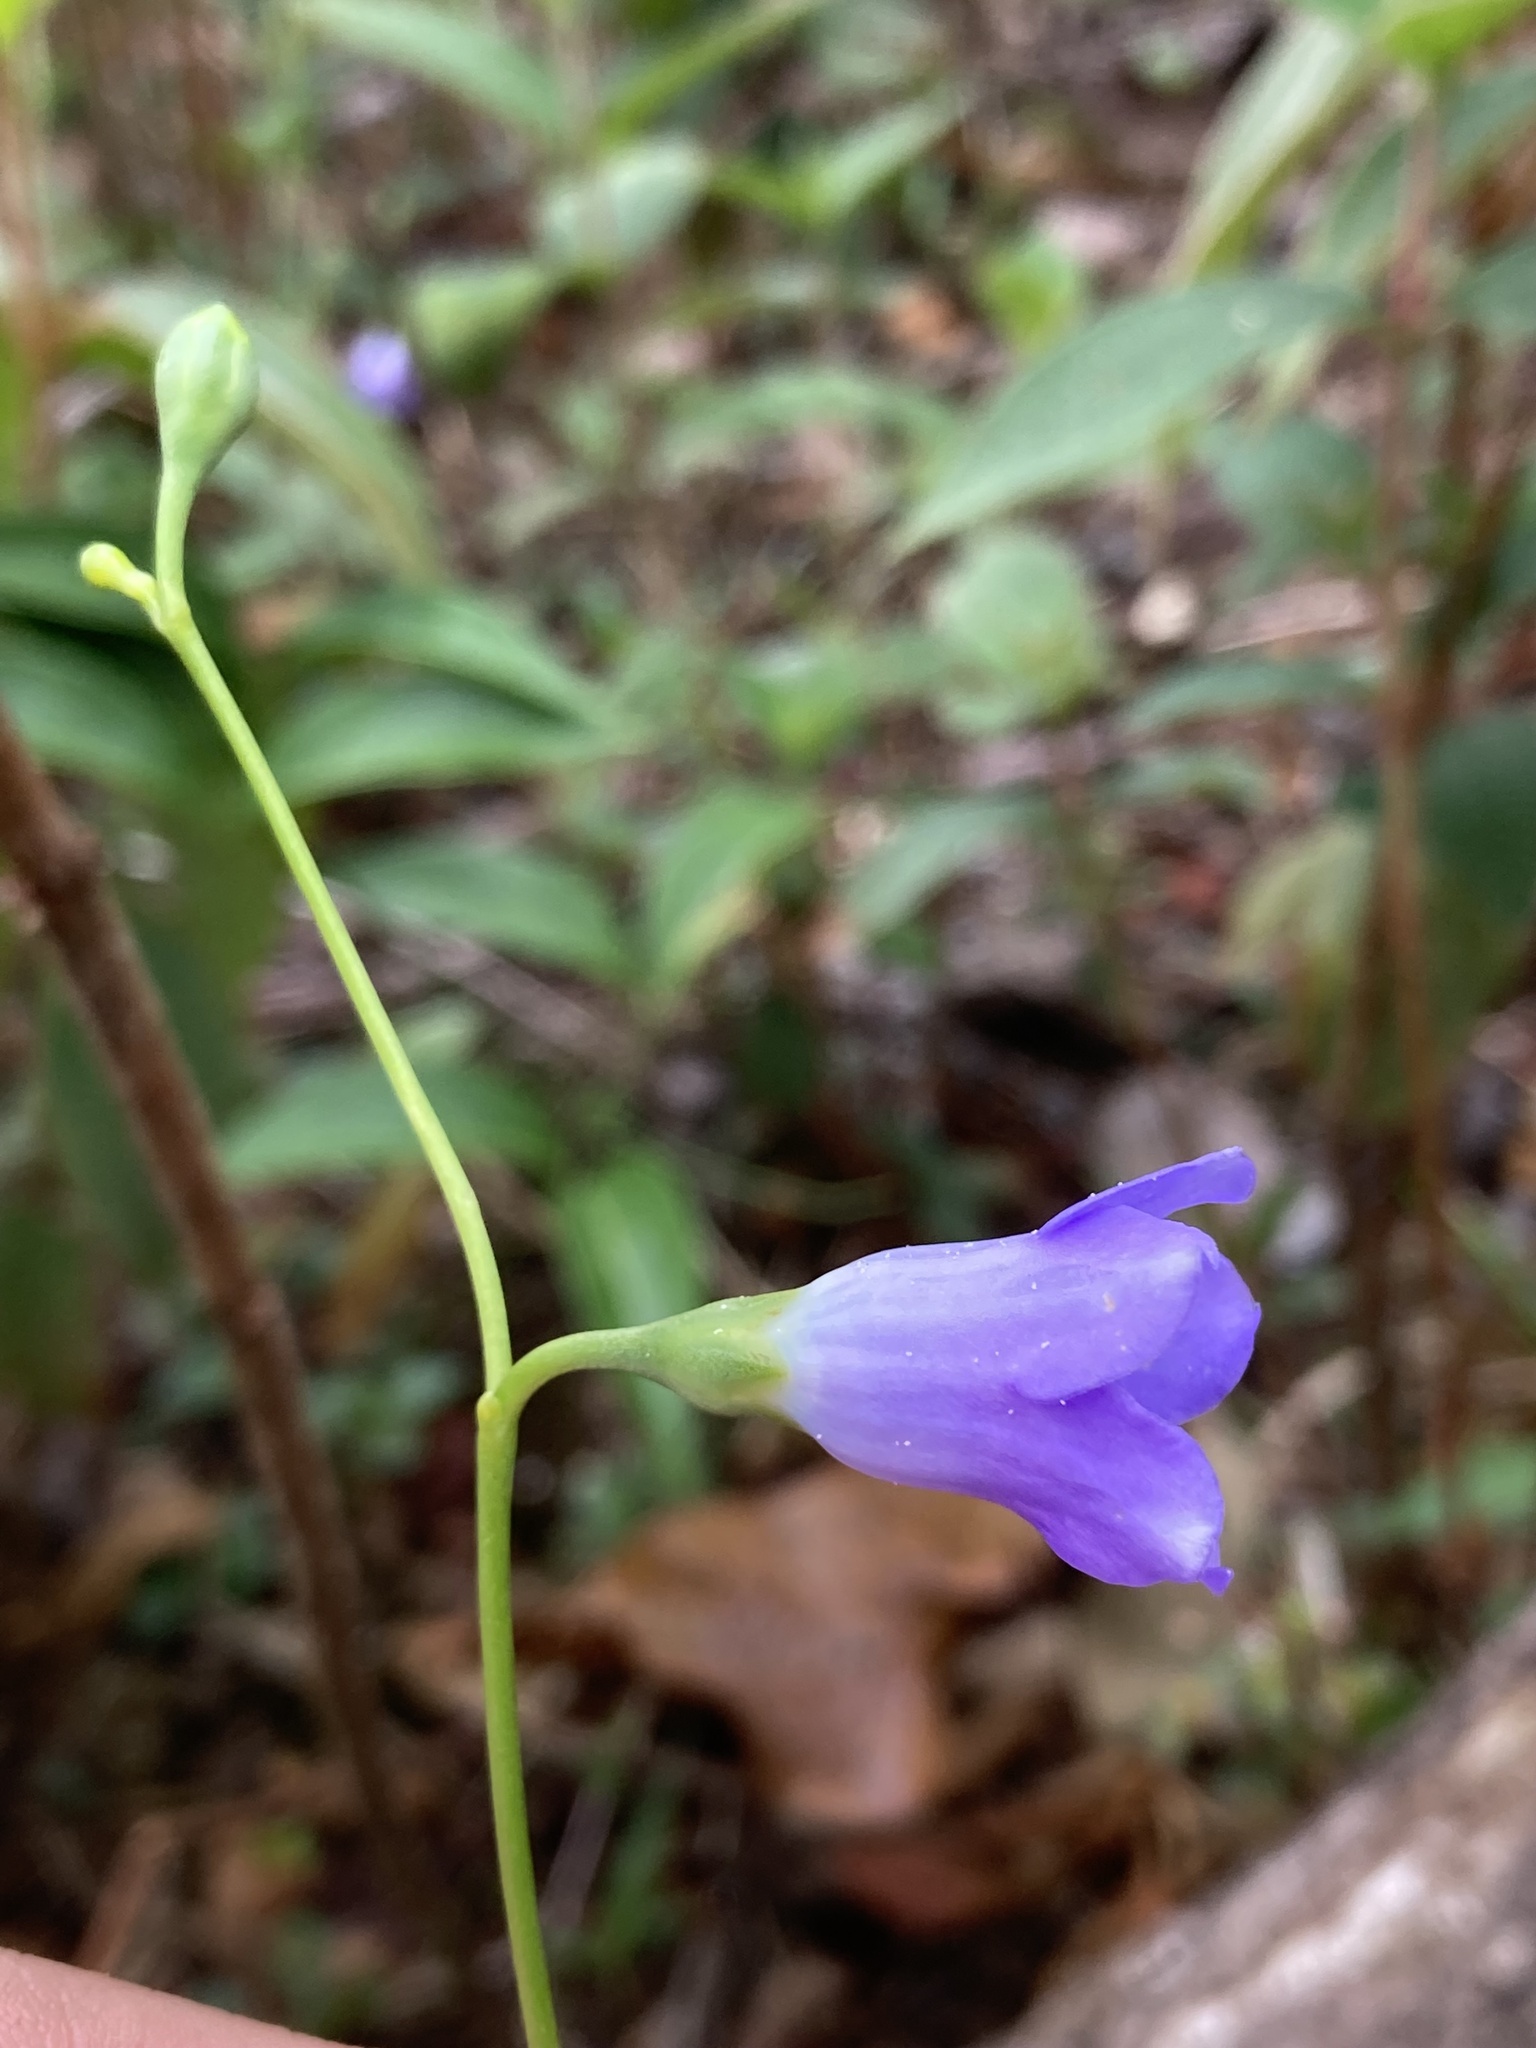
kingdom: Plantae
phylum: Tracheophyta
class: Magnoliopsida
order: Gentianales
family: Gentianaceae
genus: Chelonanthus
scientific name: Chelonanthus purpurascens
